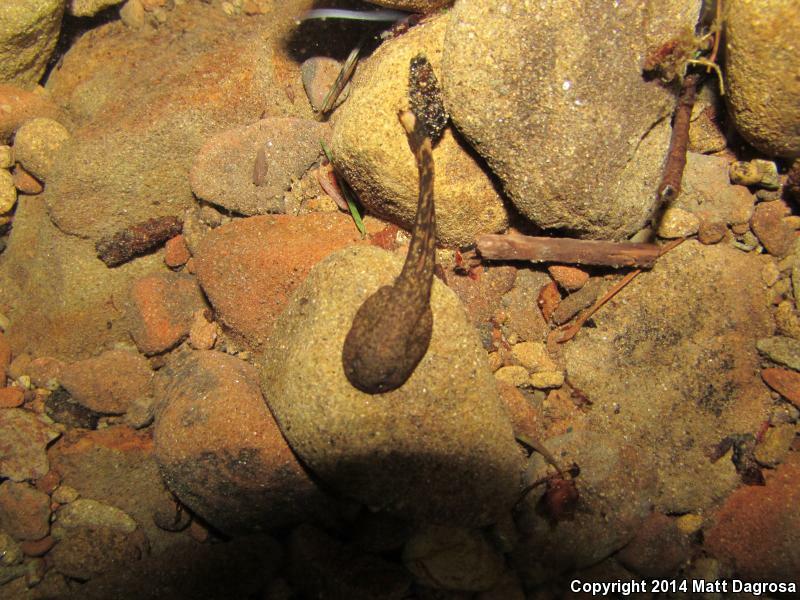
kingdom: Animalia
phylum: Chordata
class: Amphibia
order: Anura
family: Ascaphidae
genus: Ascaphus
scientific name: Ascaphus truei
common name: Tailed frog
